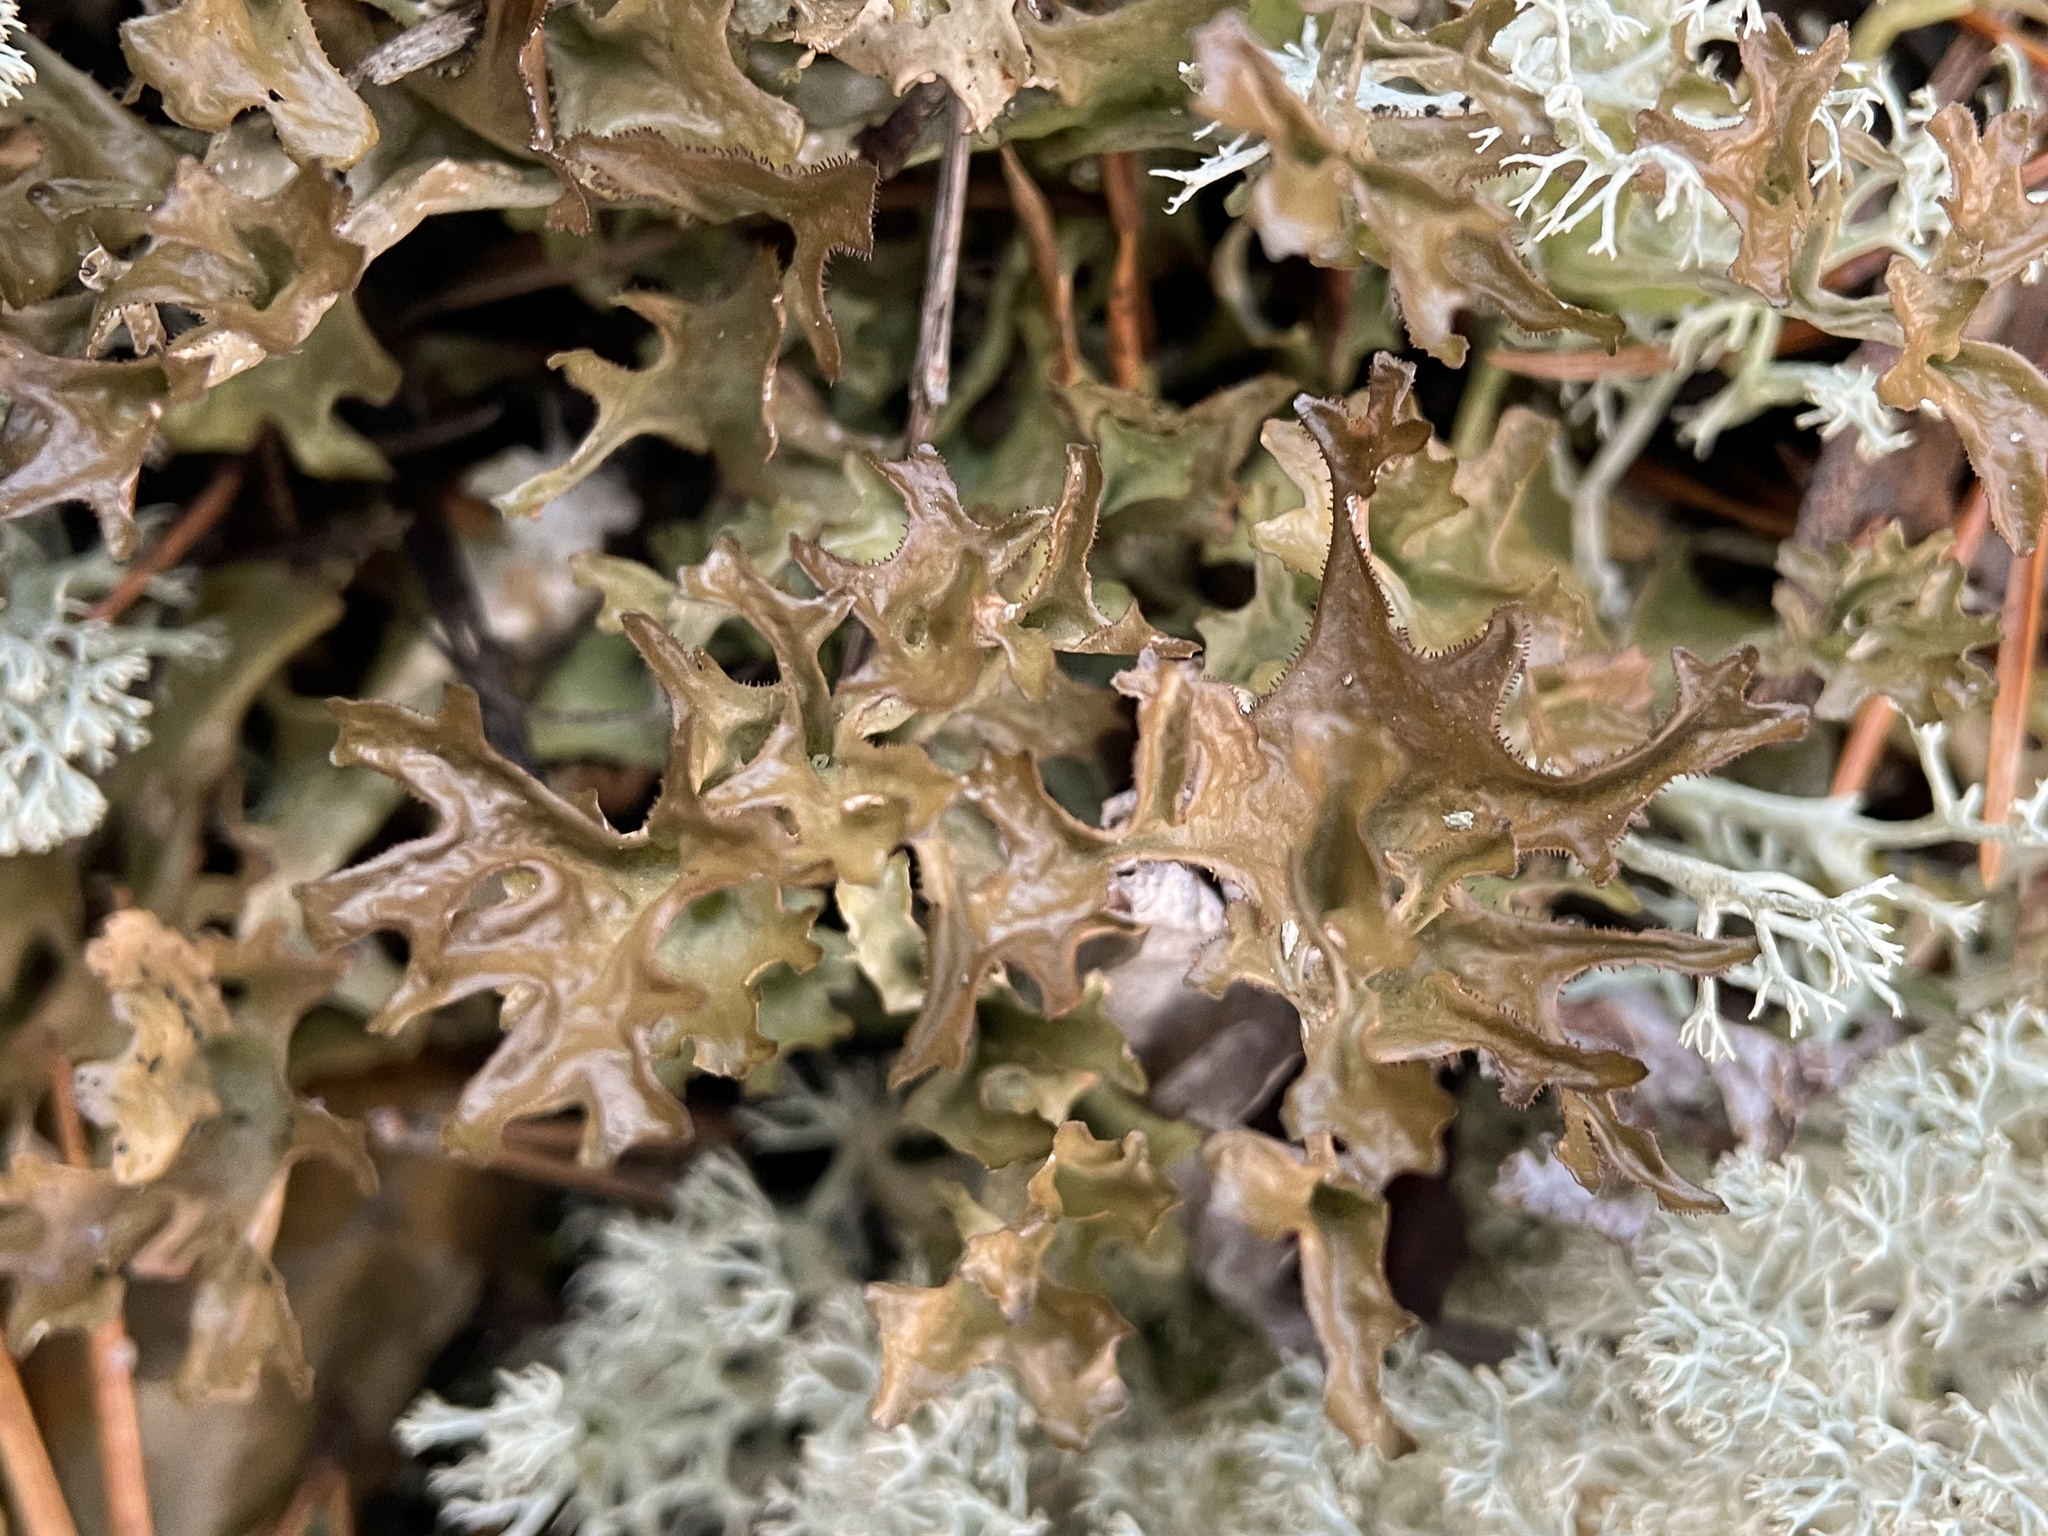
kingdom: Fungi
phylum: Ascomycota
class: Lecanoromycetes
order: Lecanorales
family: Parmeliaceae
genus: Cetraria
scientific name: Cetraria islandica
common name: Iceland lichen
